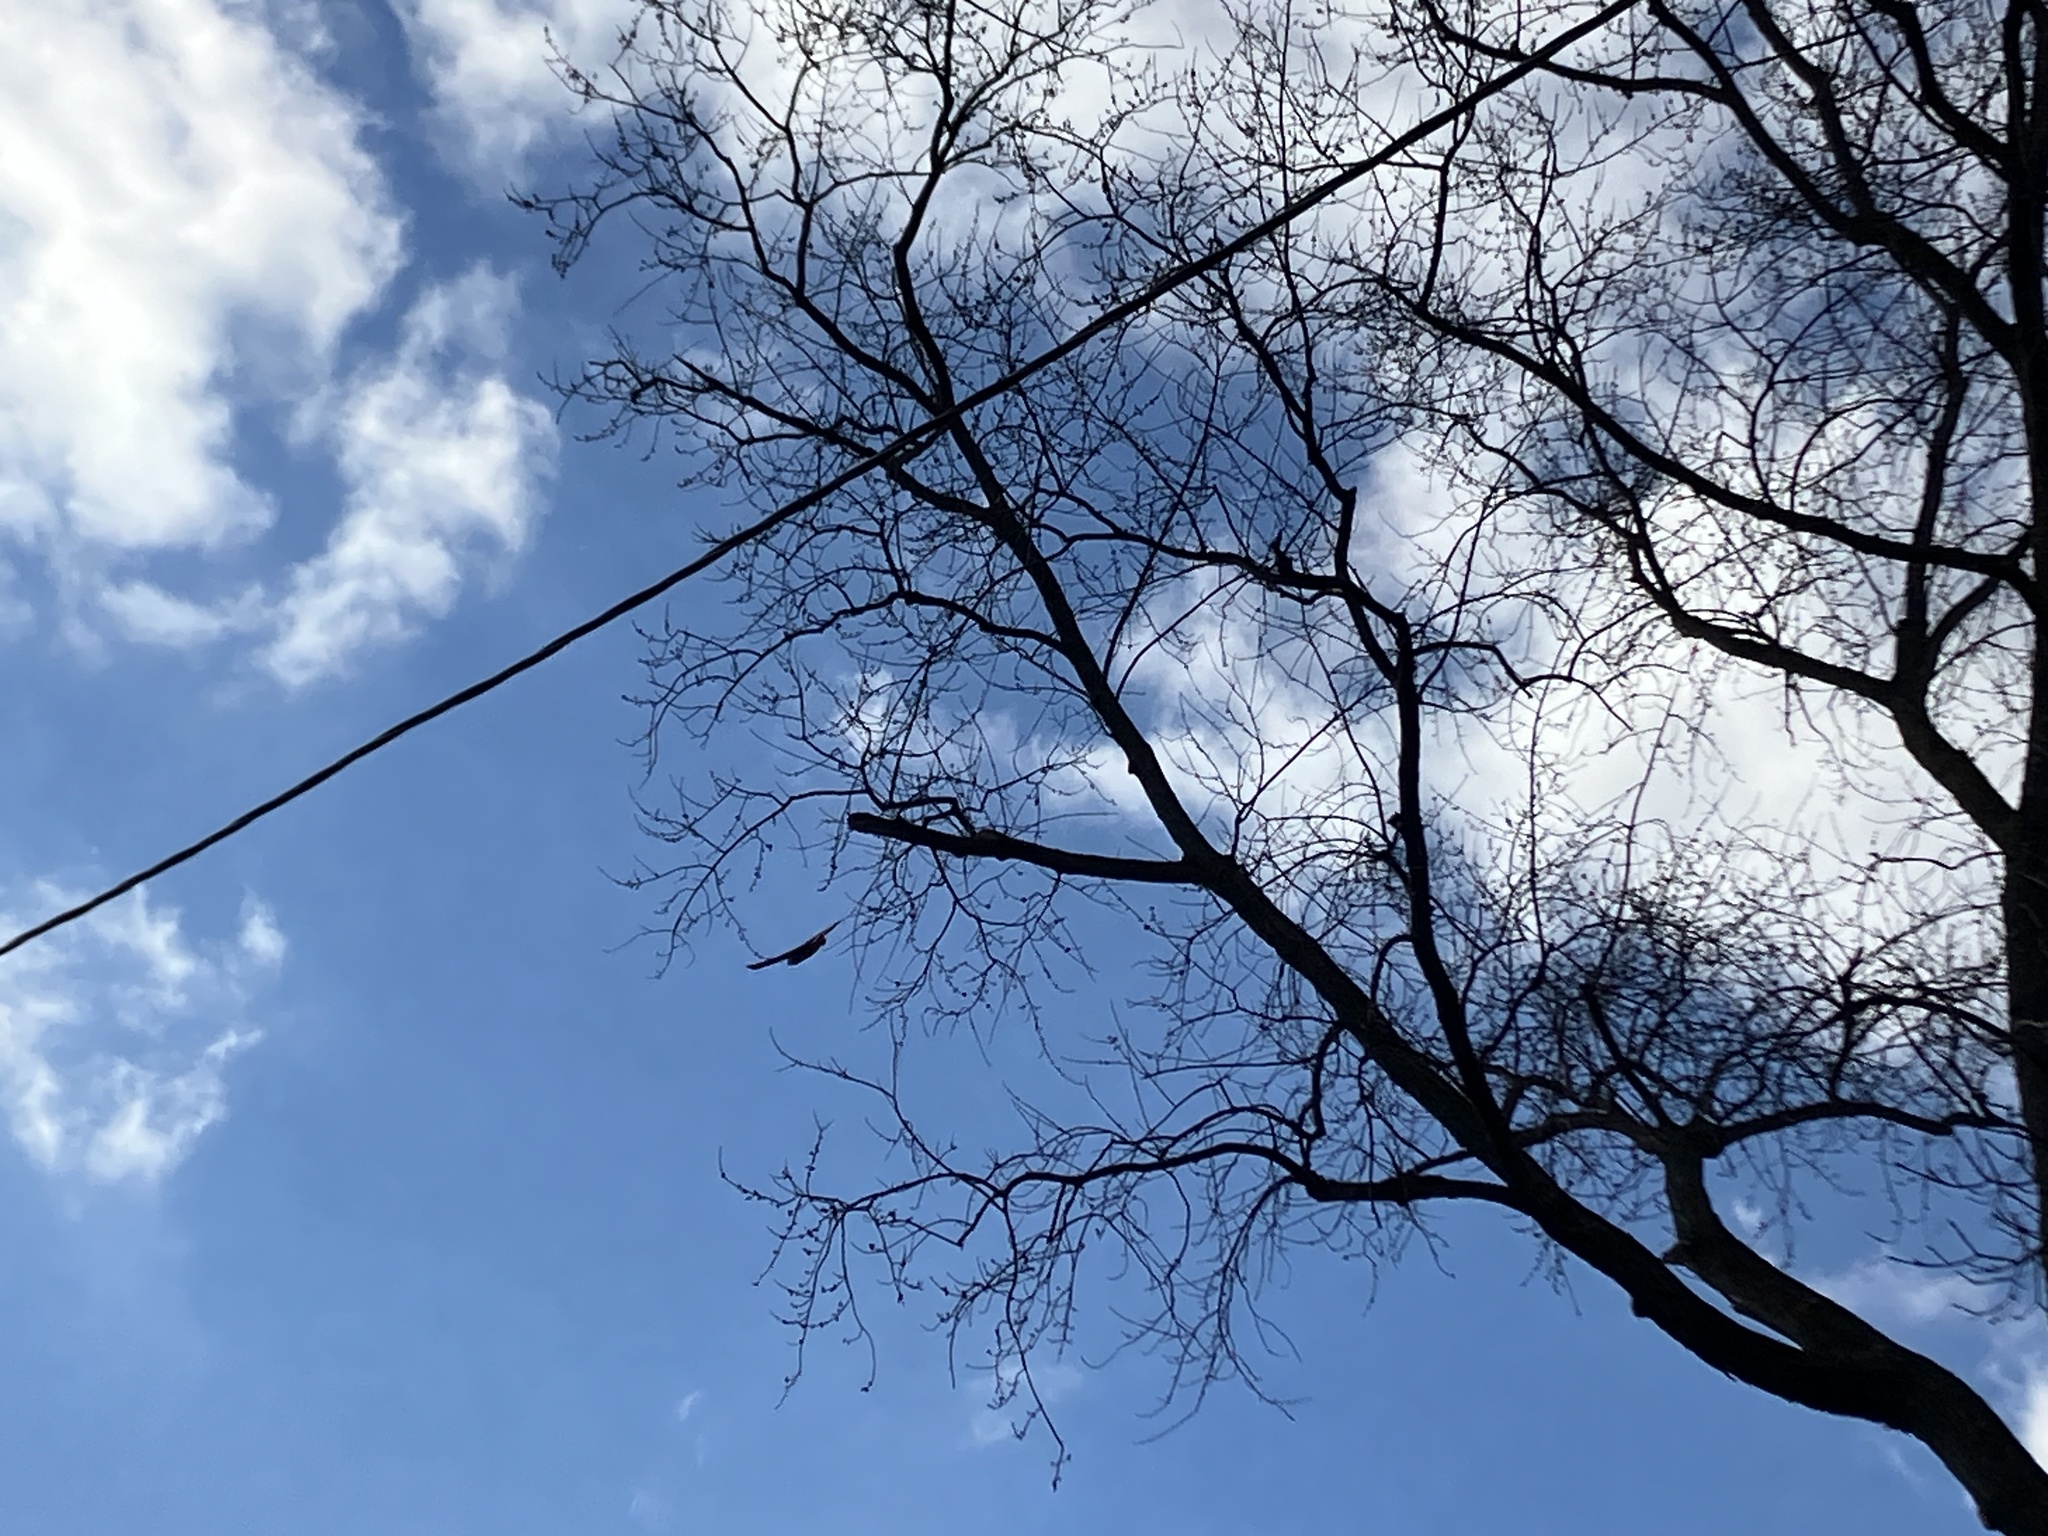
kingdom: Animalia
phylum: Chordata
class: Aves
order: Accipitriformes
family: Accipitridae
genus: Accipiter
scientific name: Accipiter cooperii
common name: Cooper's hawk
